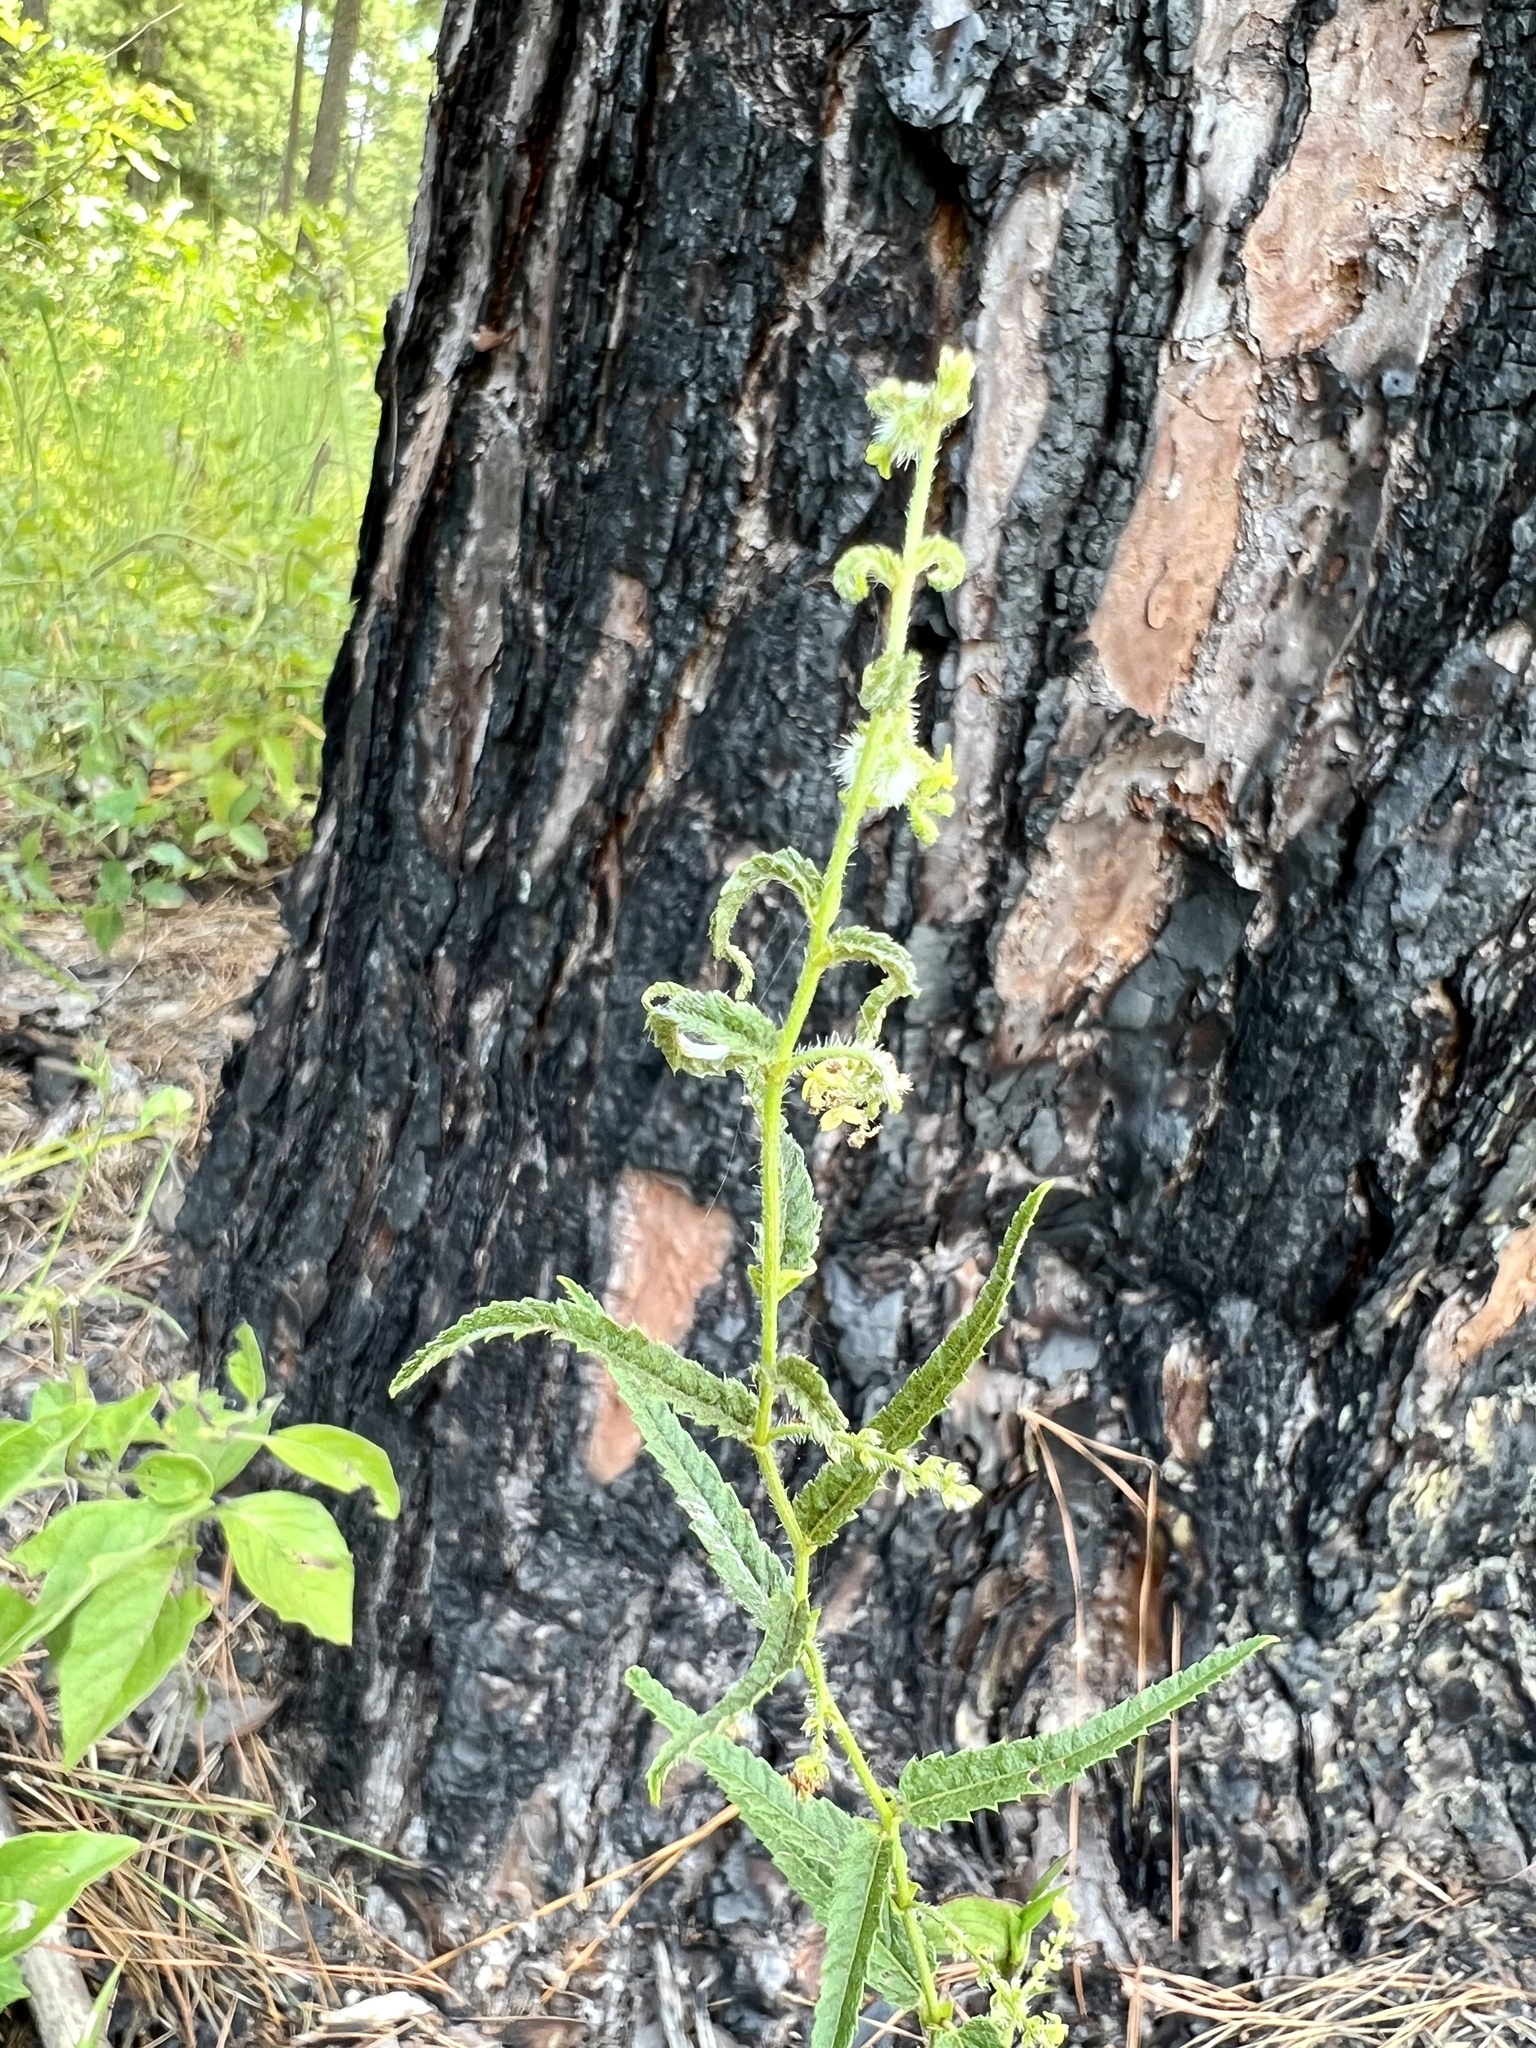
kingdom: Plantae
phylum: Tracheophyta
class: Magnoliopsida
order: Malpighiales
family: Euphorbiaceae
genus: Tragia
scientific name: Tragia urticifolia
